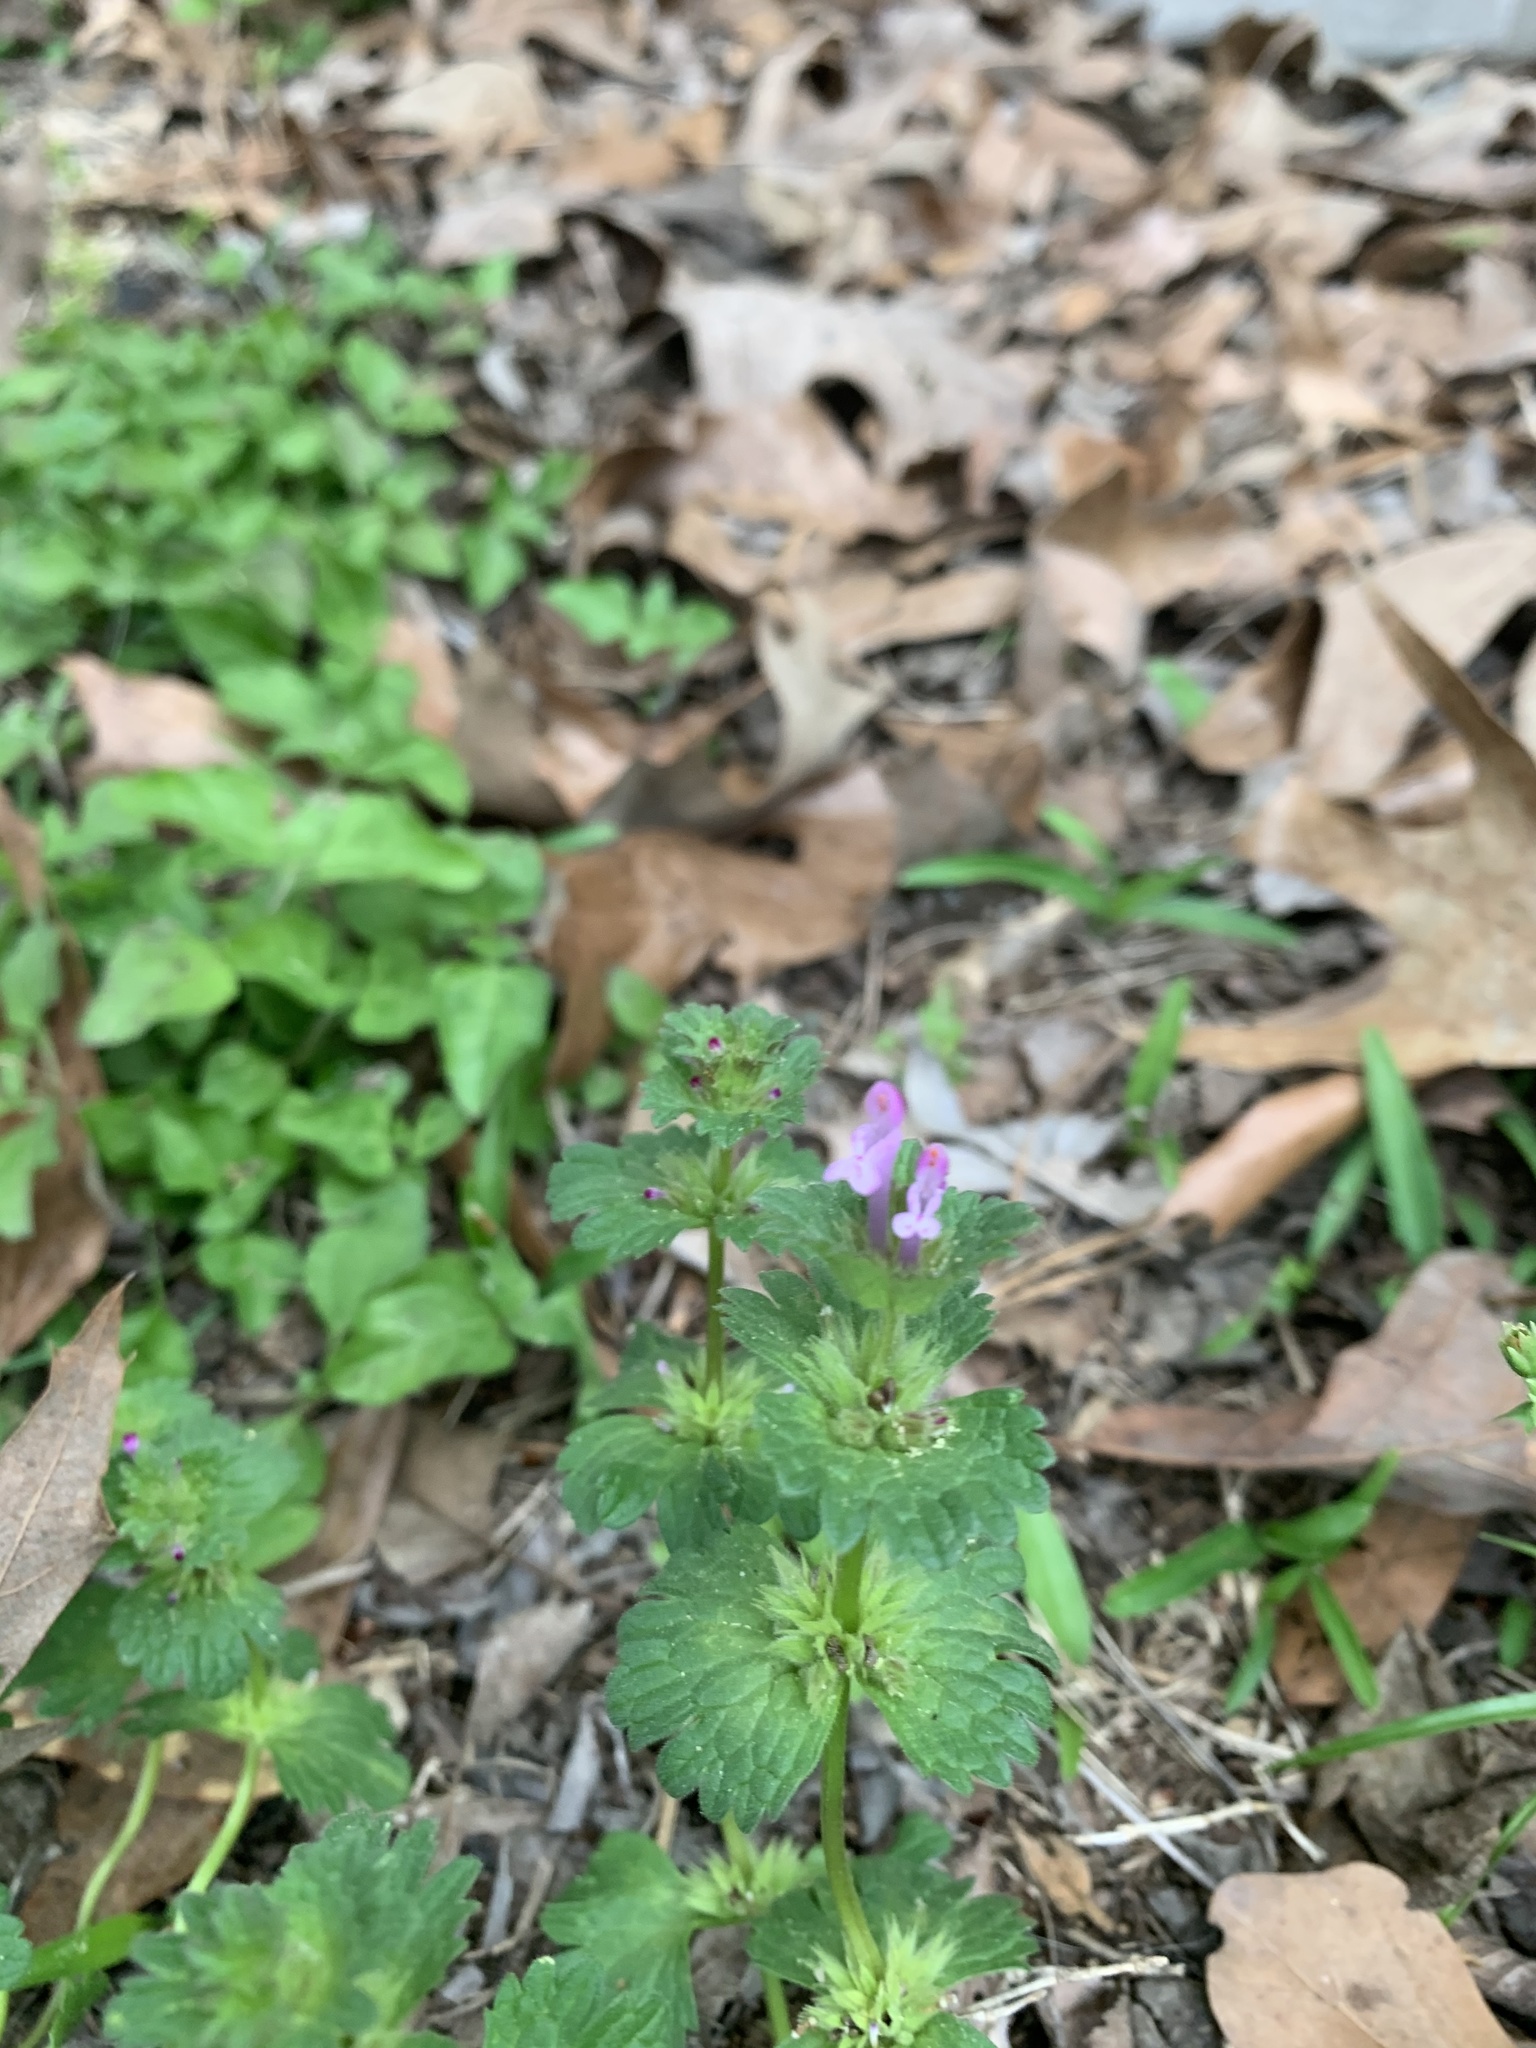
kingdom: Plantae
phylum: Tracheophyta
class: Magnoliopsida
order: Lamiales
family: Lamiaceae
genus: Lamium
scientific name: Lamium amplexicaule
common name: Henbit dead-nettle
